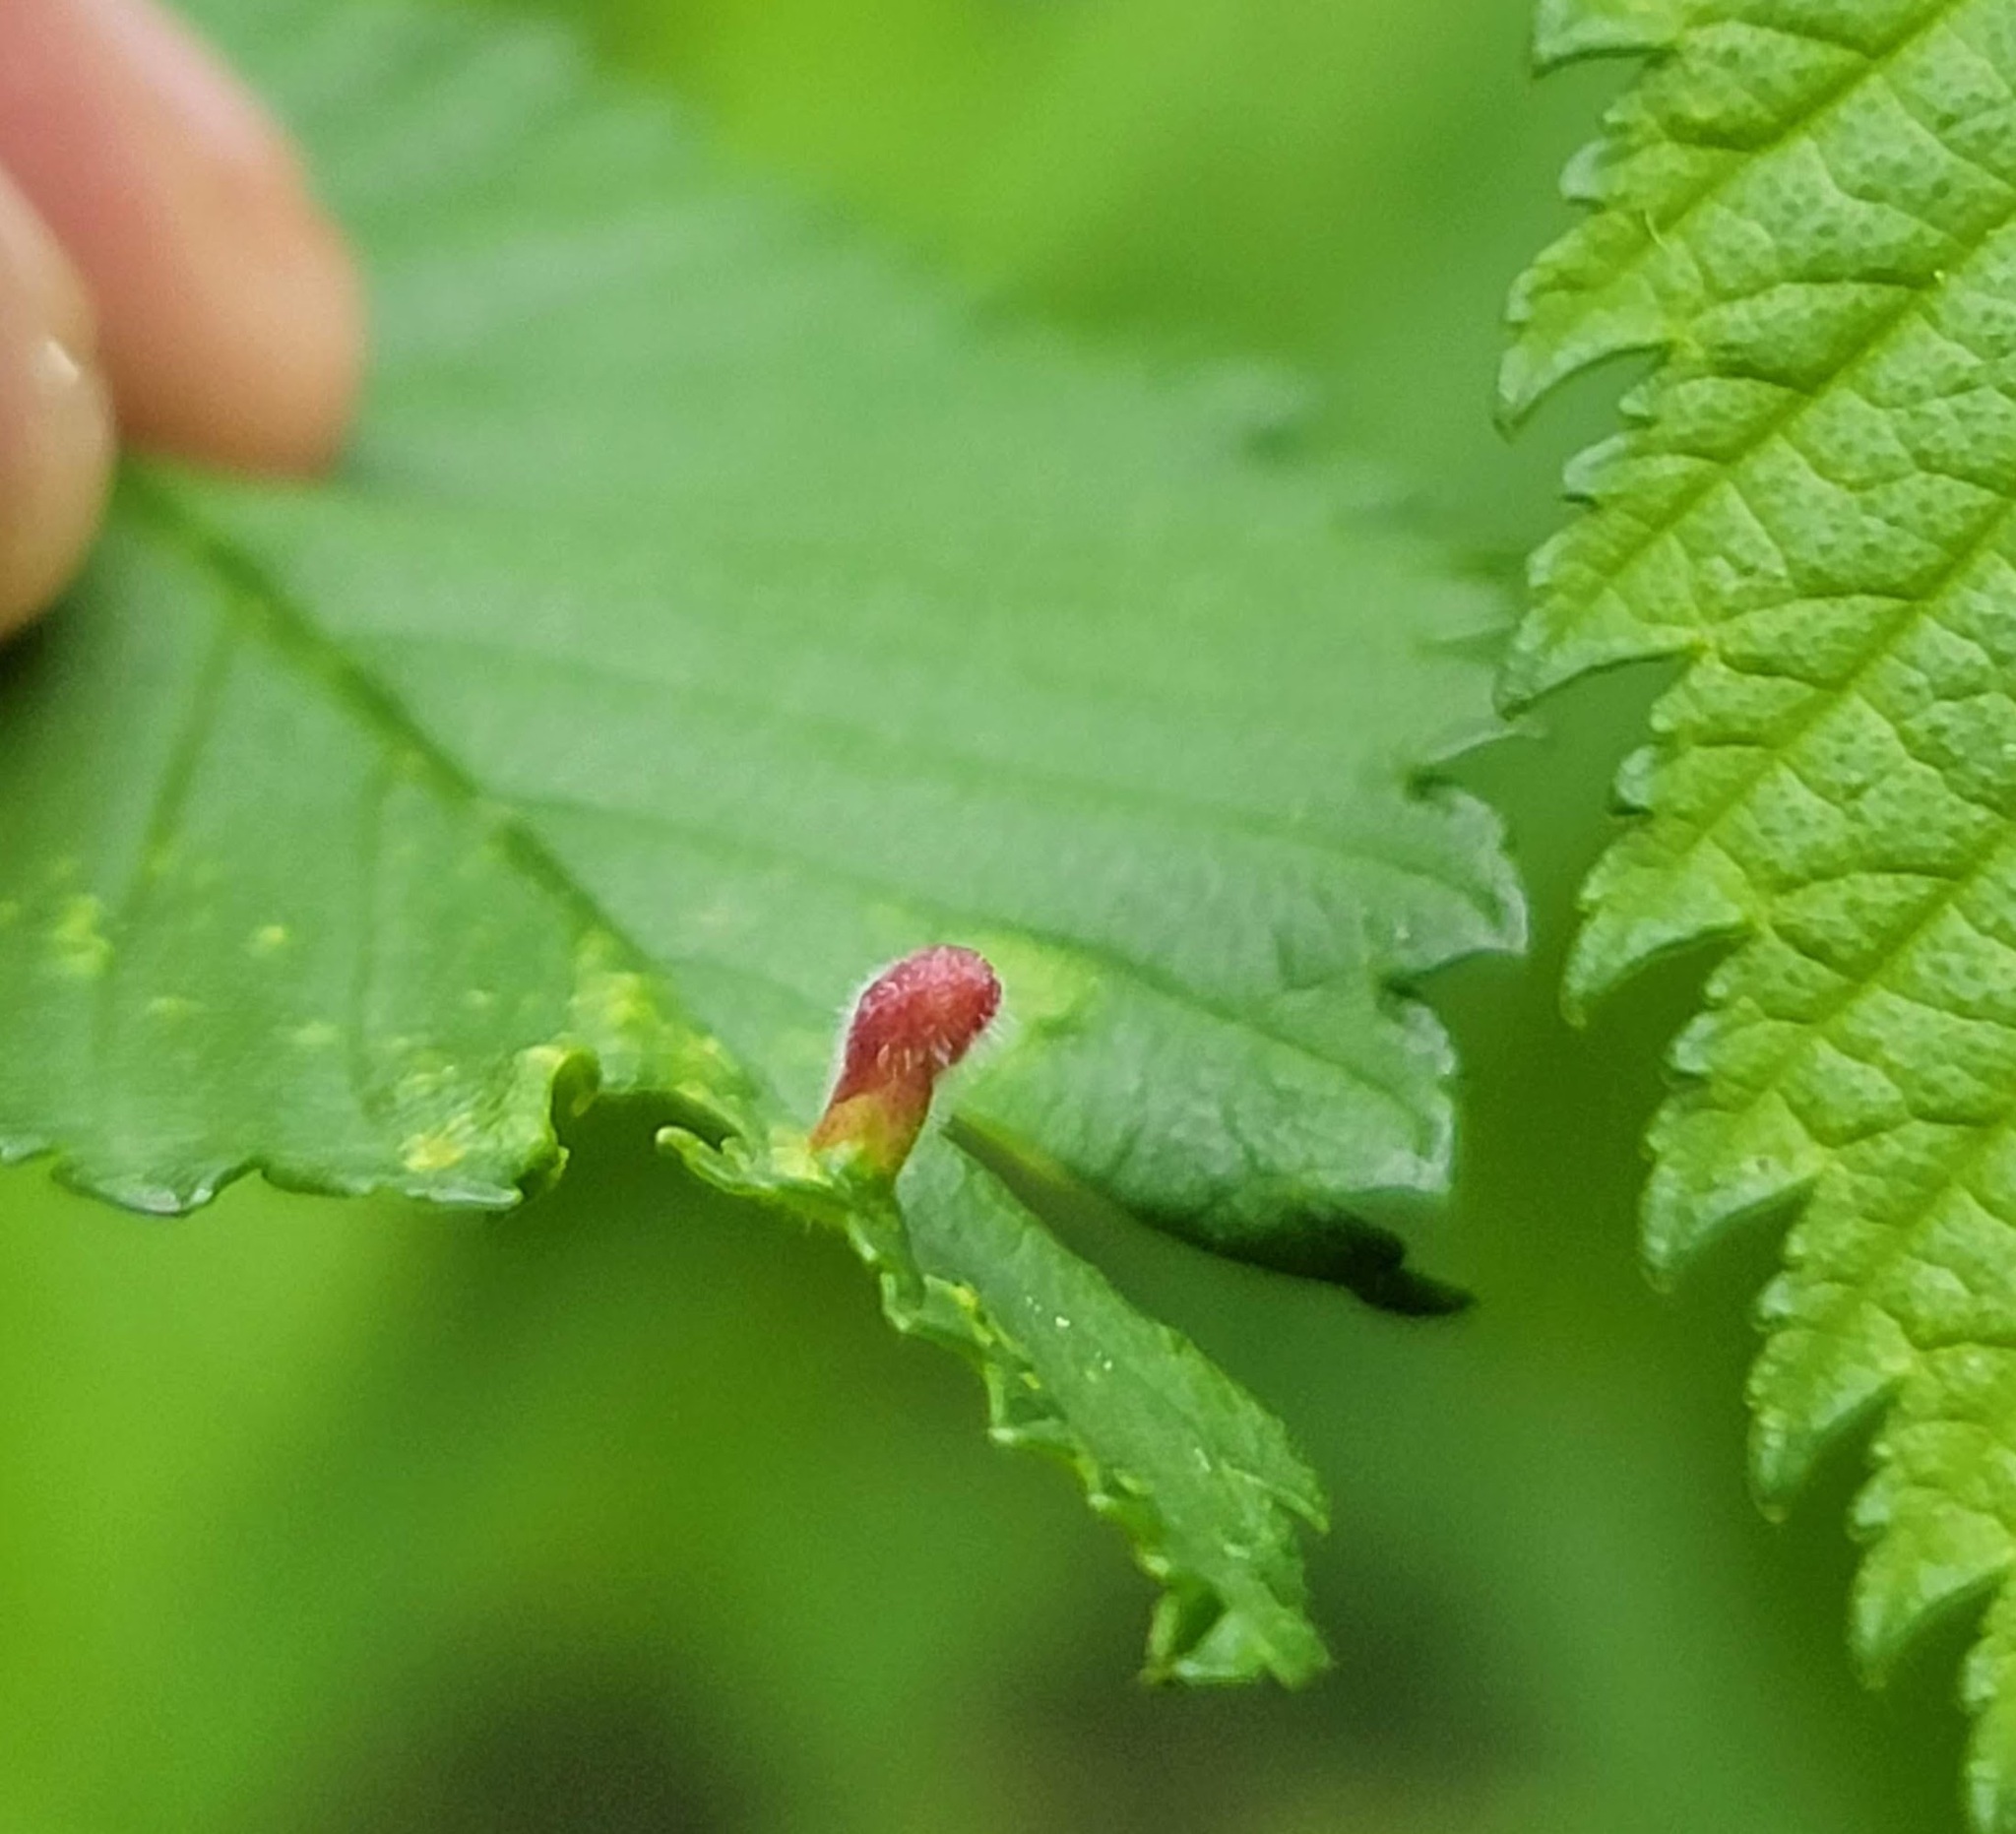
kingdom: Animalia
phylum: Arthropoda
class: Insecta
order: Hemiptera
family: Aphididae
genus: Tetraneura
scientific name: Tetraneura nigriabdominalis
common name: Aphid
